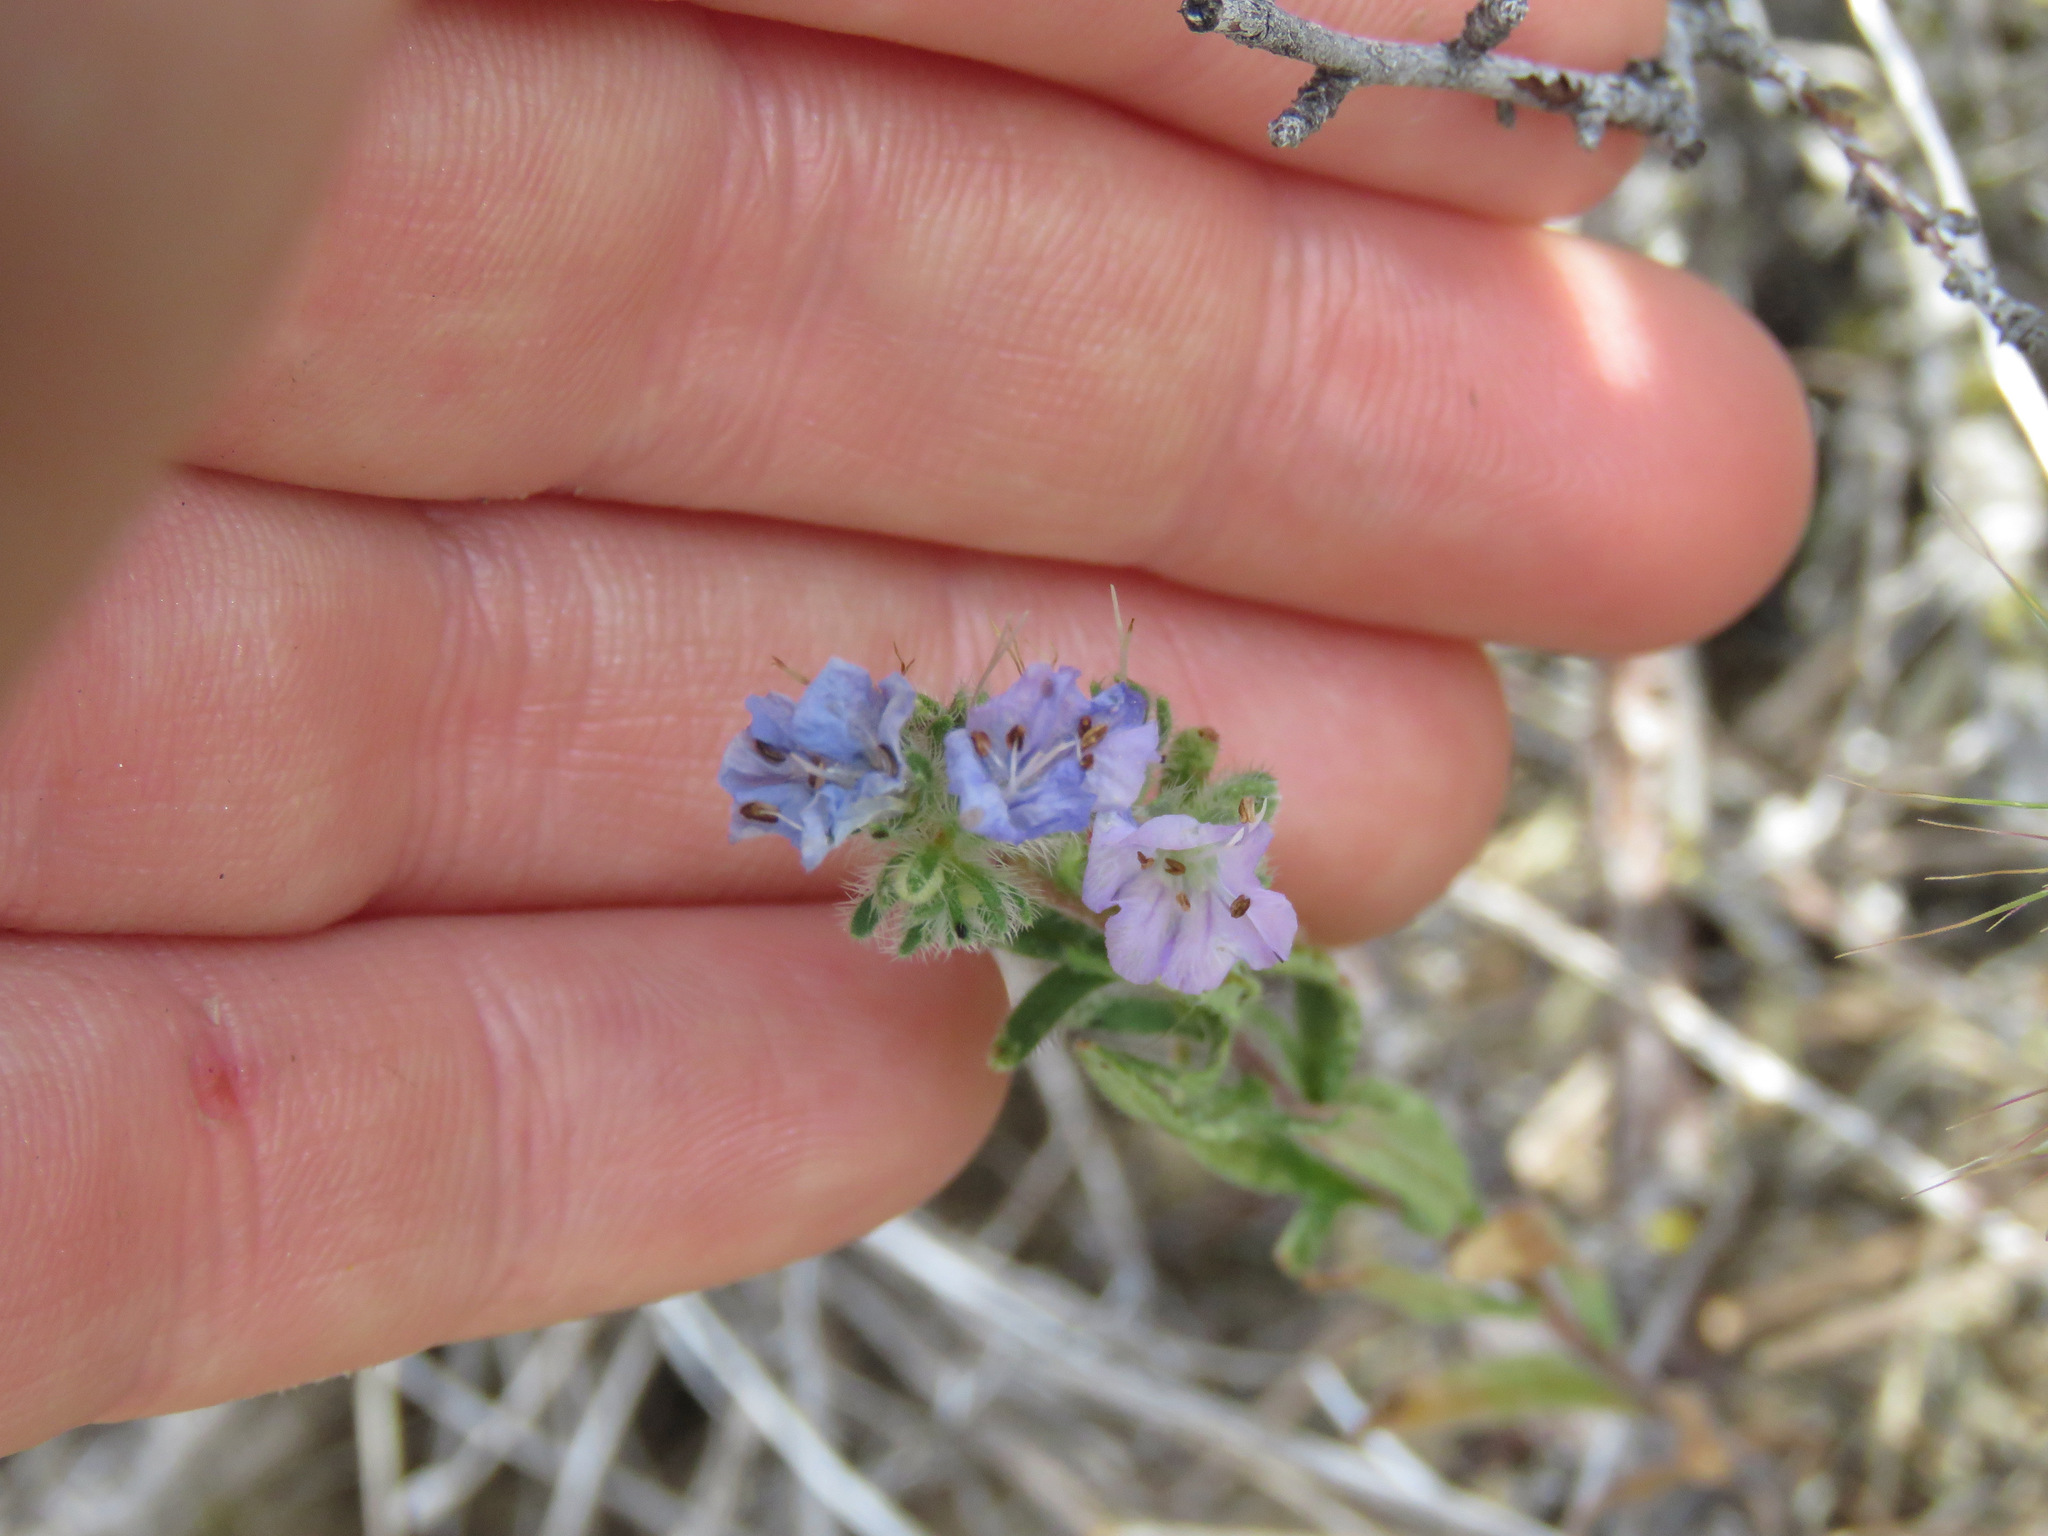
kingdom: Plantae
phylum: Tracheophyta
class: Magnoliopsida
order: Boraginales
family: Hydrophyllaceae
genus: Phacelia
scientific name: Phacelia linearis
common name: Linear-leaved phacelia
